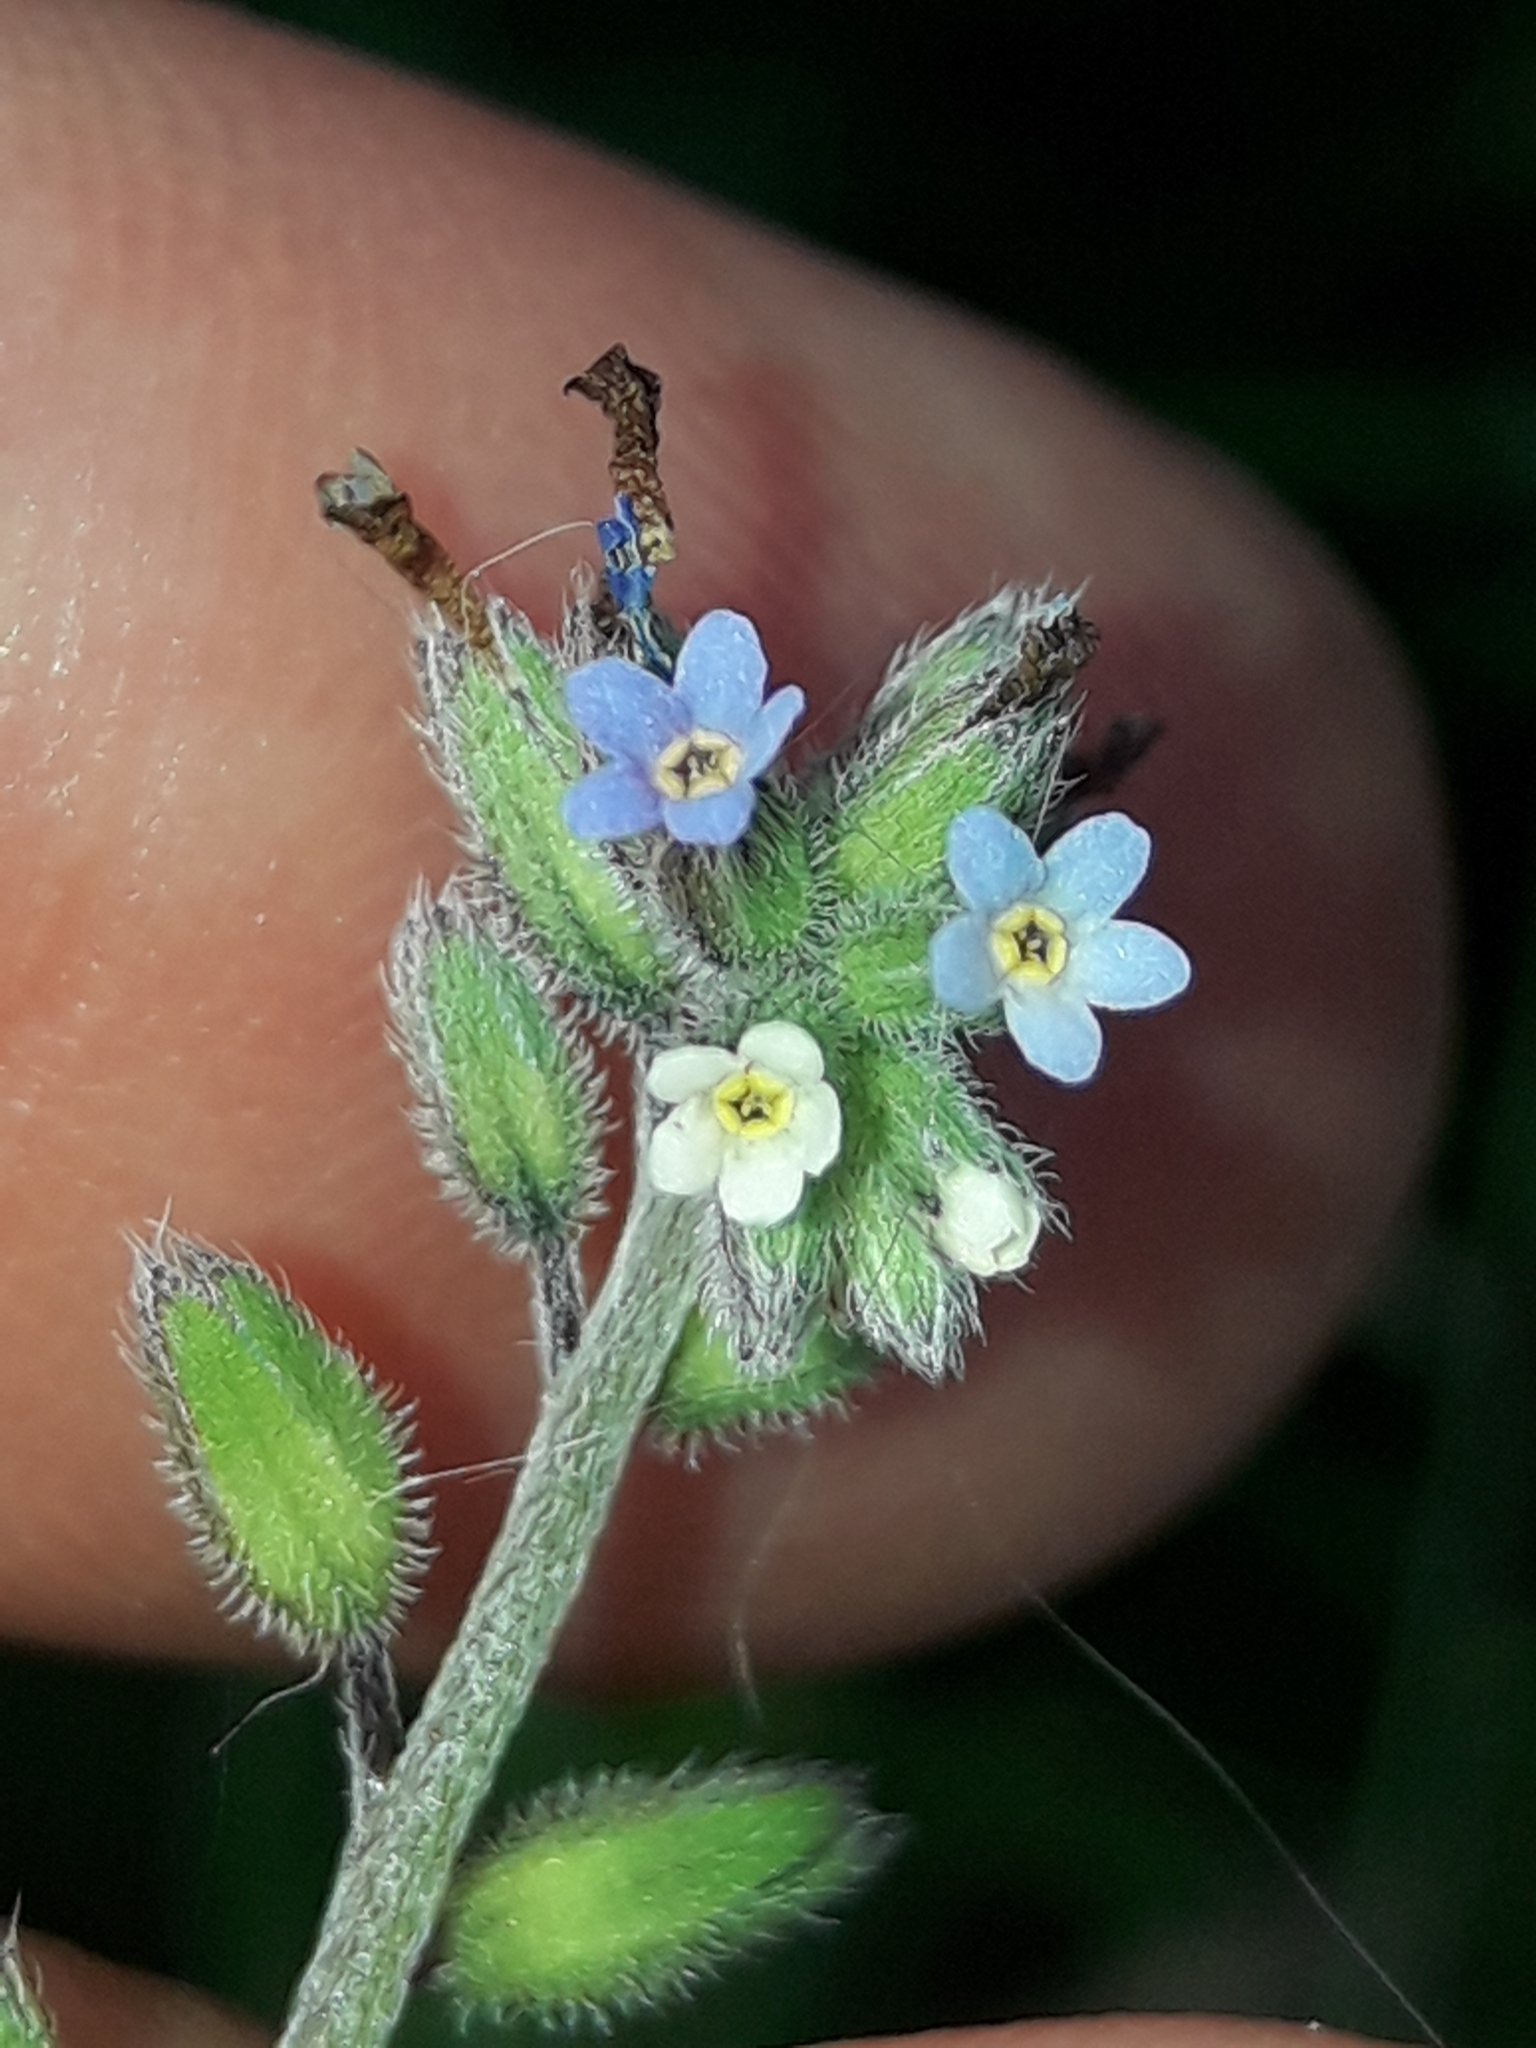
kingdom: Plantae
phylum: Tracheophyta
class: Magnoliopsida
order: Boraginales
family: Boraginaceae
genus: Myosotis
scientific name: Myosotis discolor
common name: Changing forget-me-not
